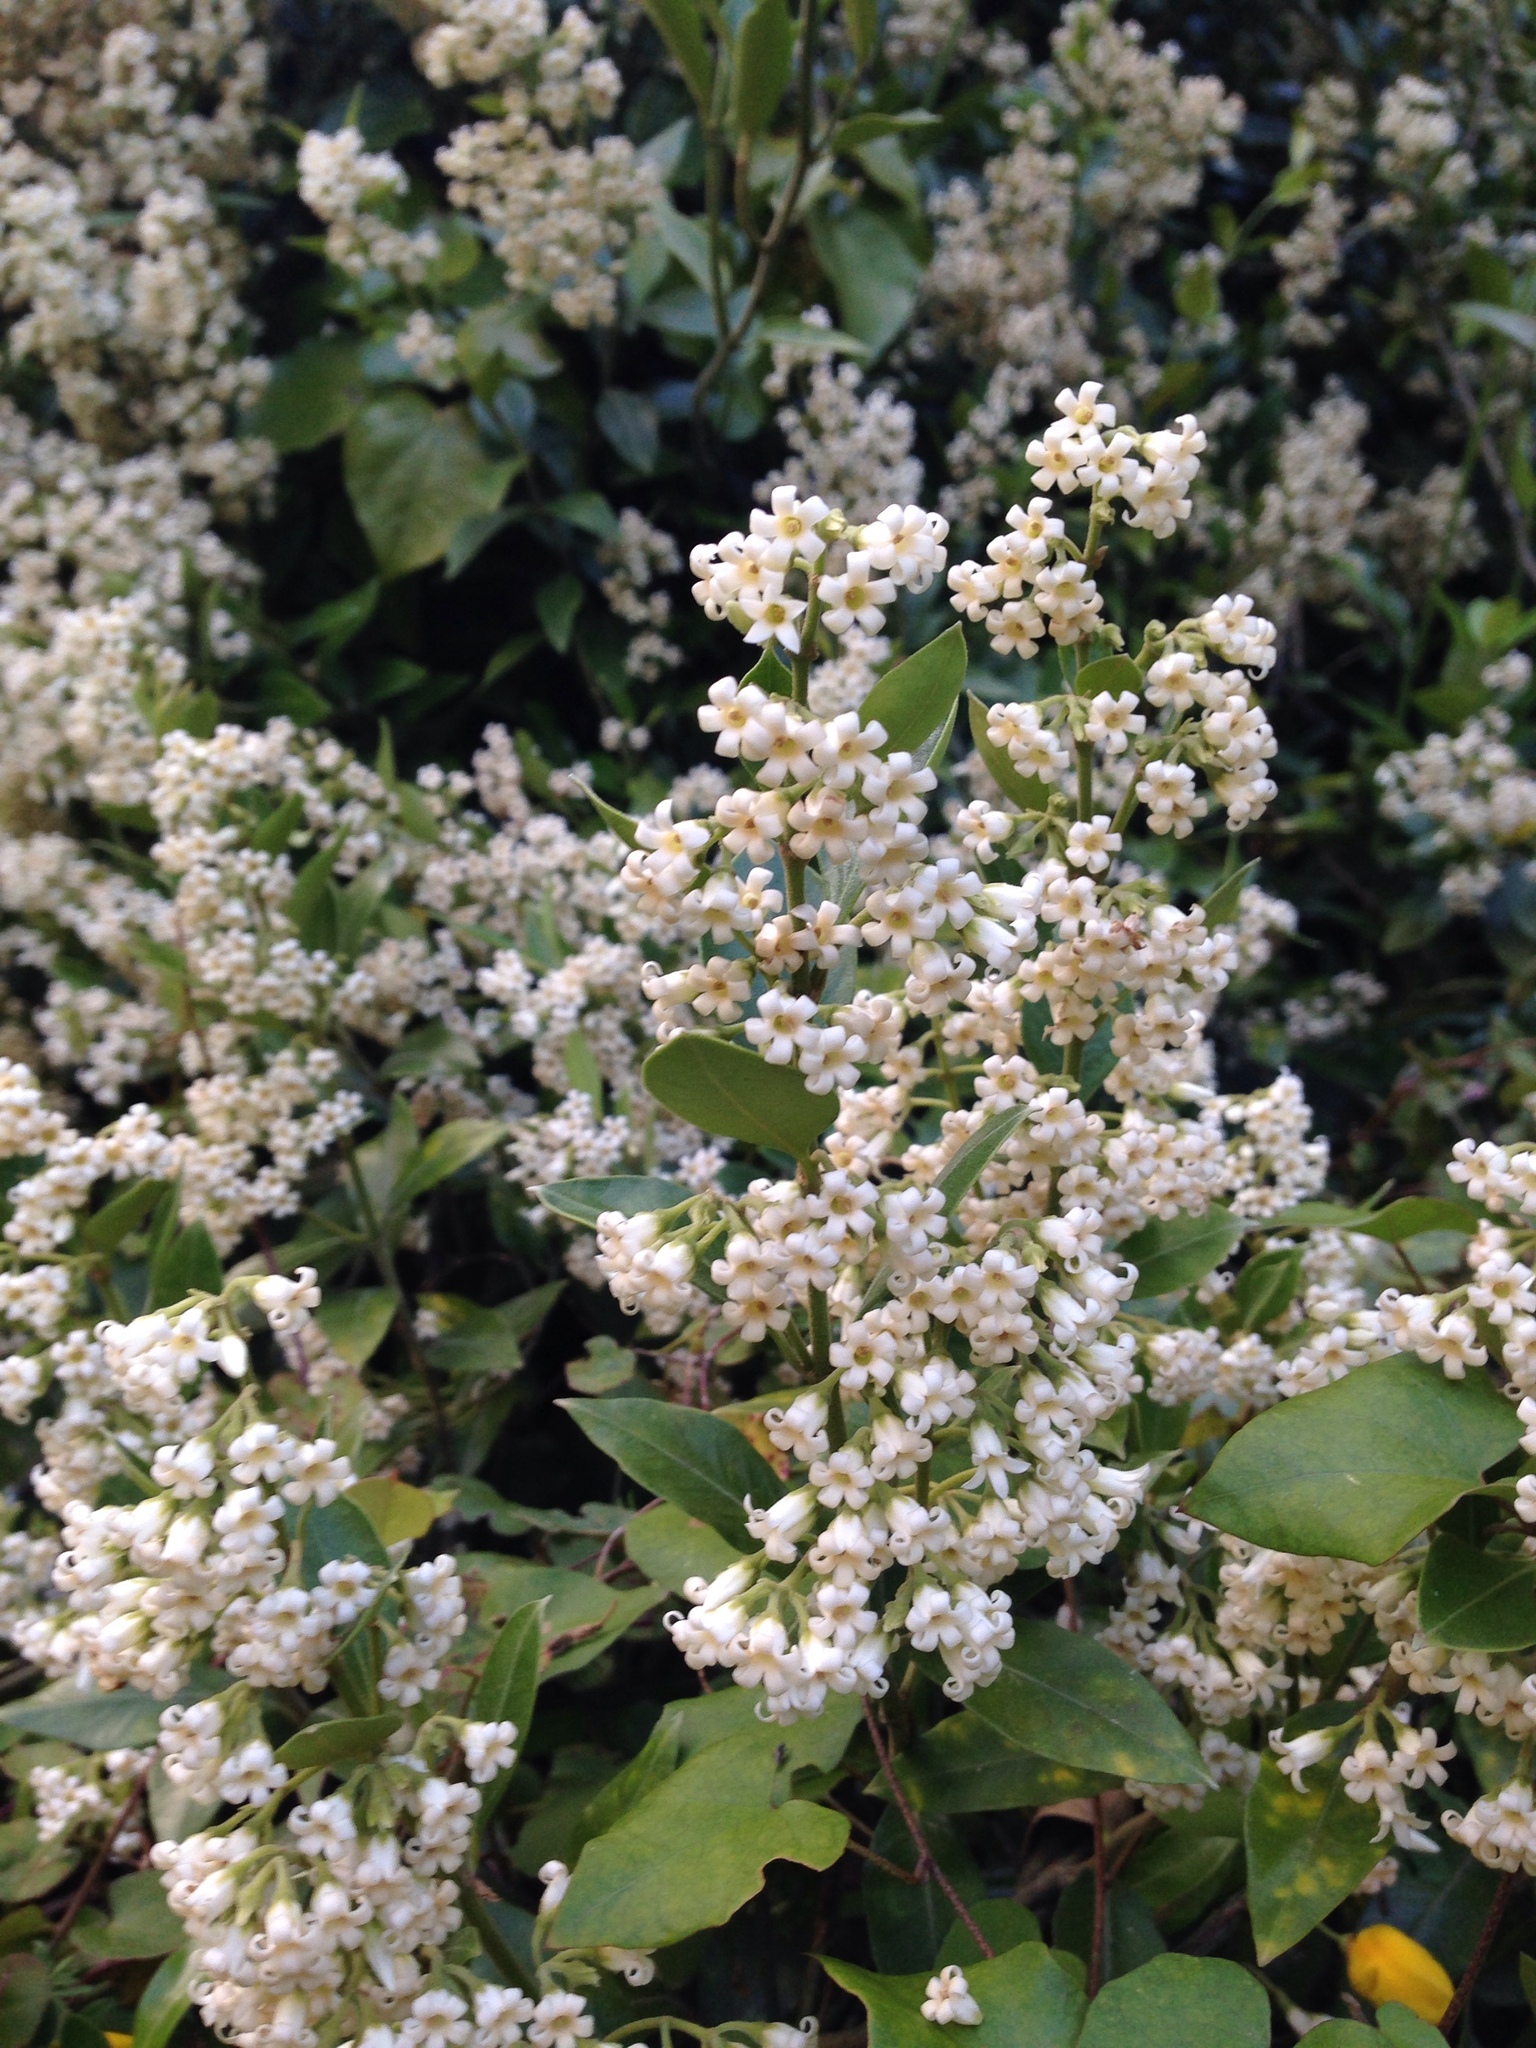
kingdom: Plantae
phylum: Tracheophyta
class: Magnoliopsida
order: Gentianales
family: Apocynaceae
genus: Parsonsia
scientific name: Parsonsia heterophylla
